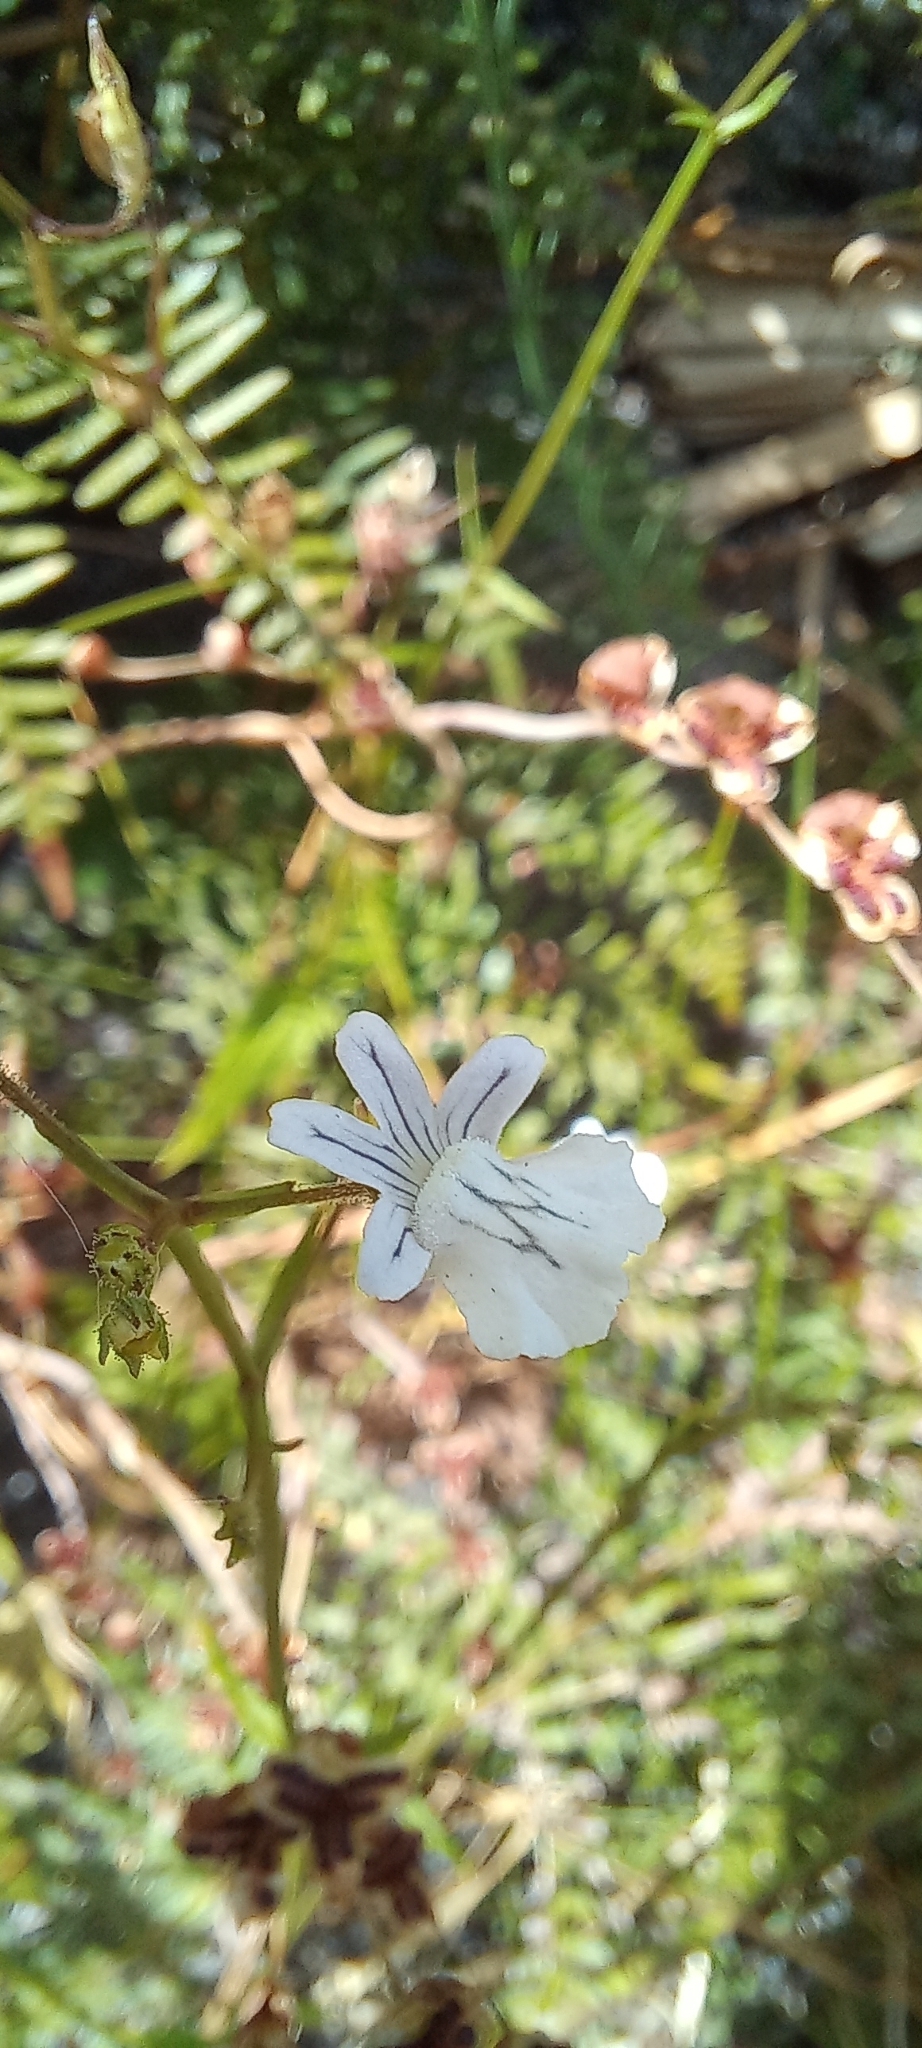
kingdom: Plantae
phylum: Tracheophyta
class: Magnoliopsida
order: Lamiales
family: Scrophulariaceae
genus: Nemesia
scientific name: Nemesia diffusa
